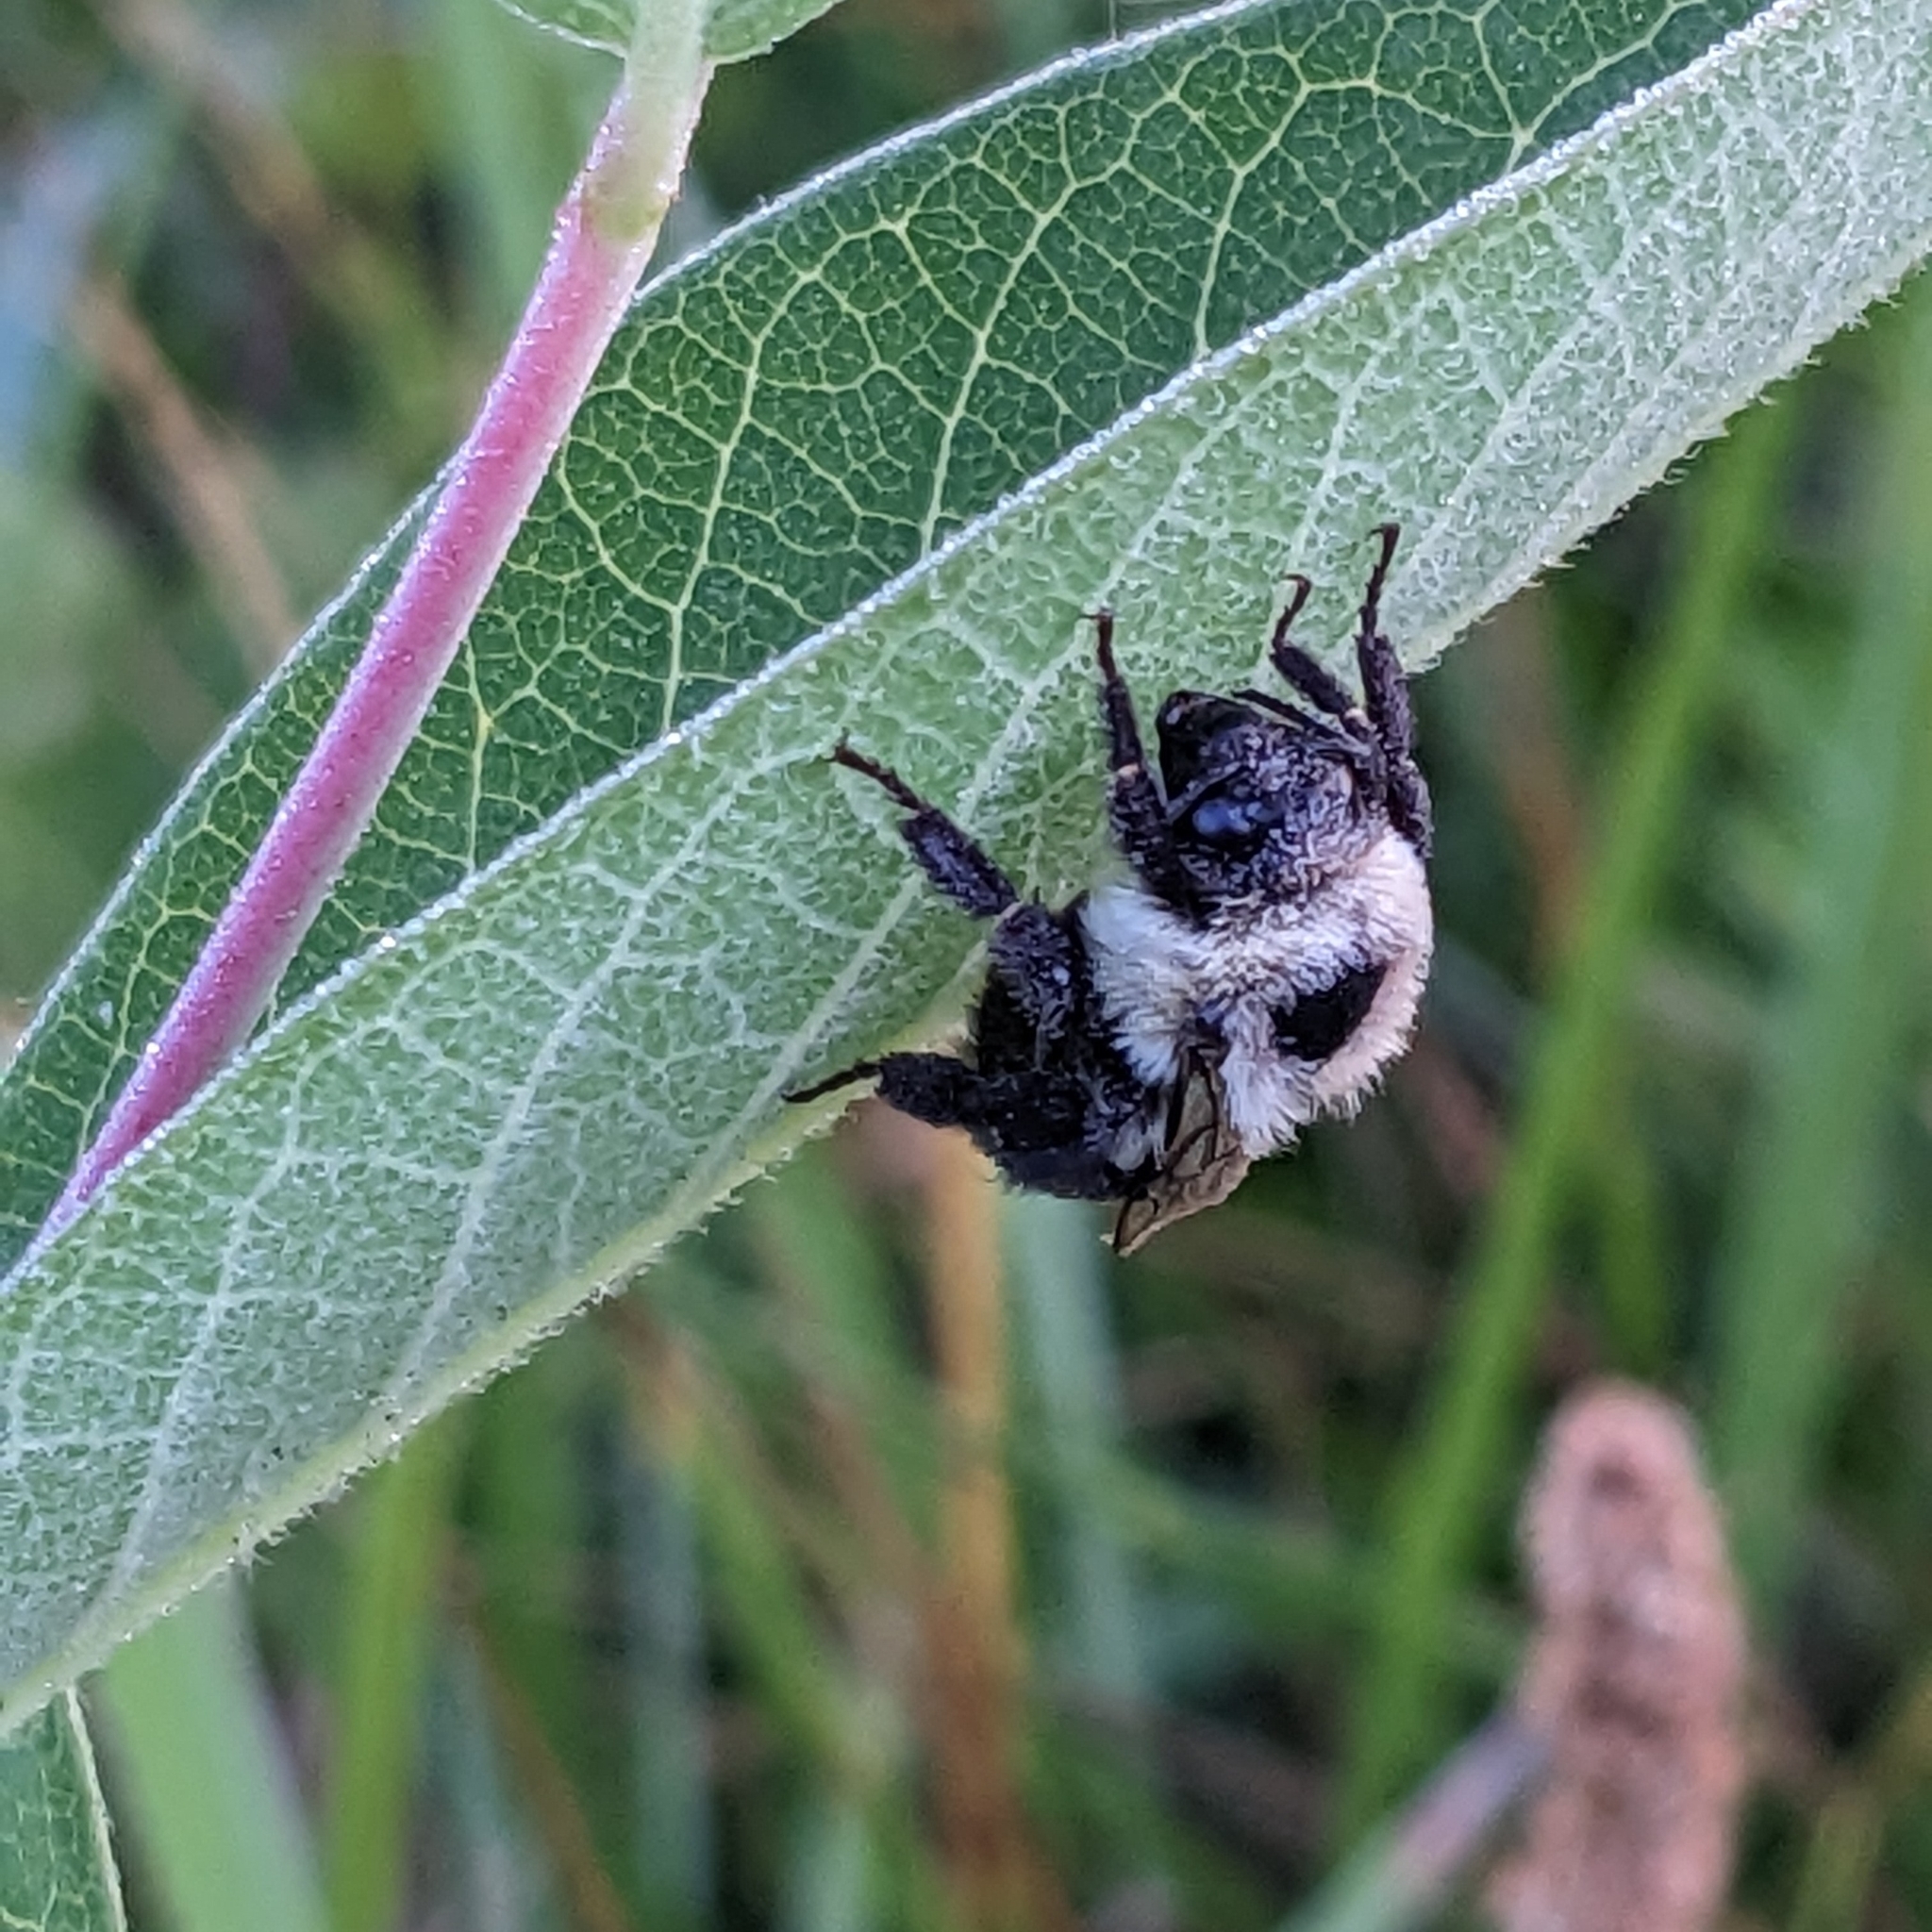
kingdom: Animalia
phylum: Arthropoda
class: Insecta
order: Hymenoptera
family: Apidae
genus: Bombus
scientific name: Bombus impatiens
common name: Common eastern bumble bee
